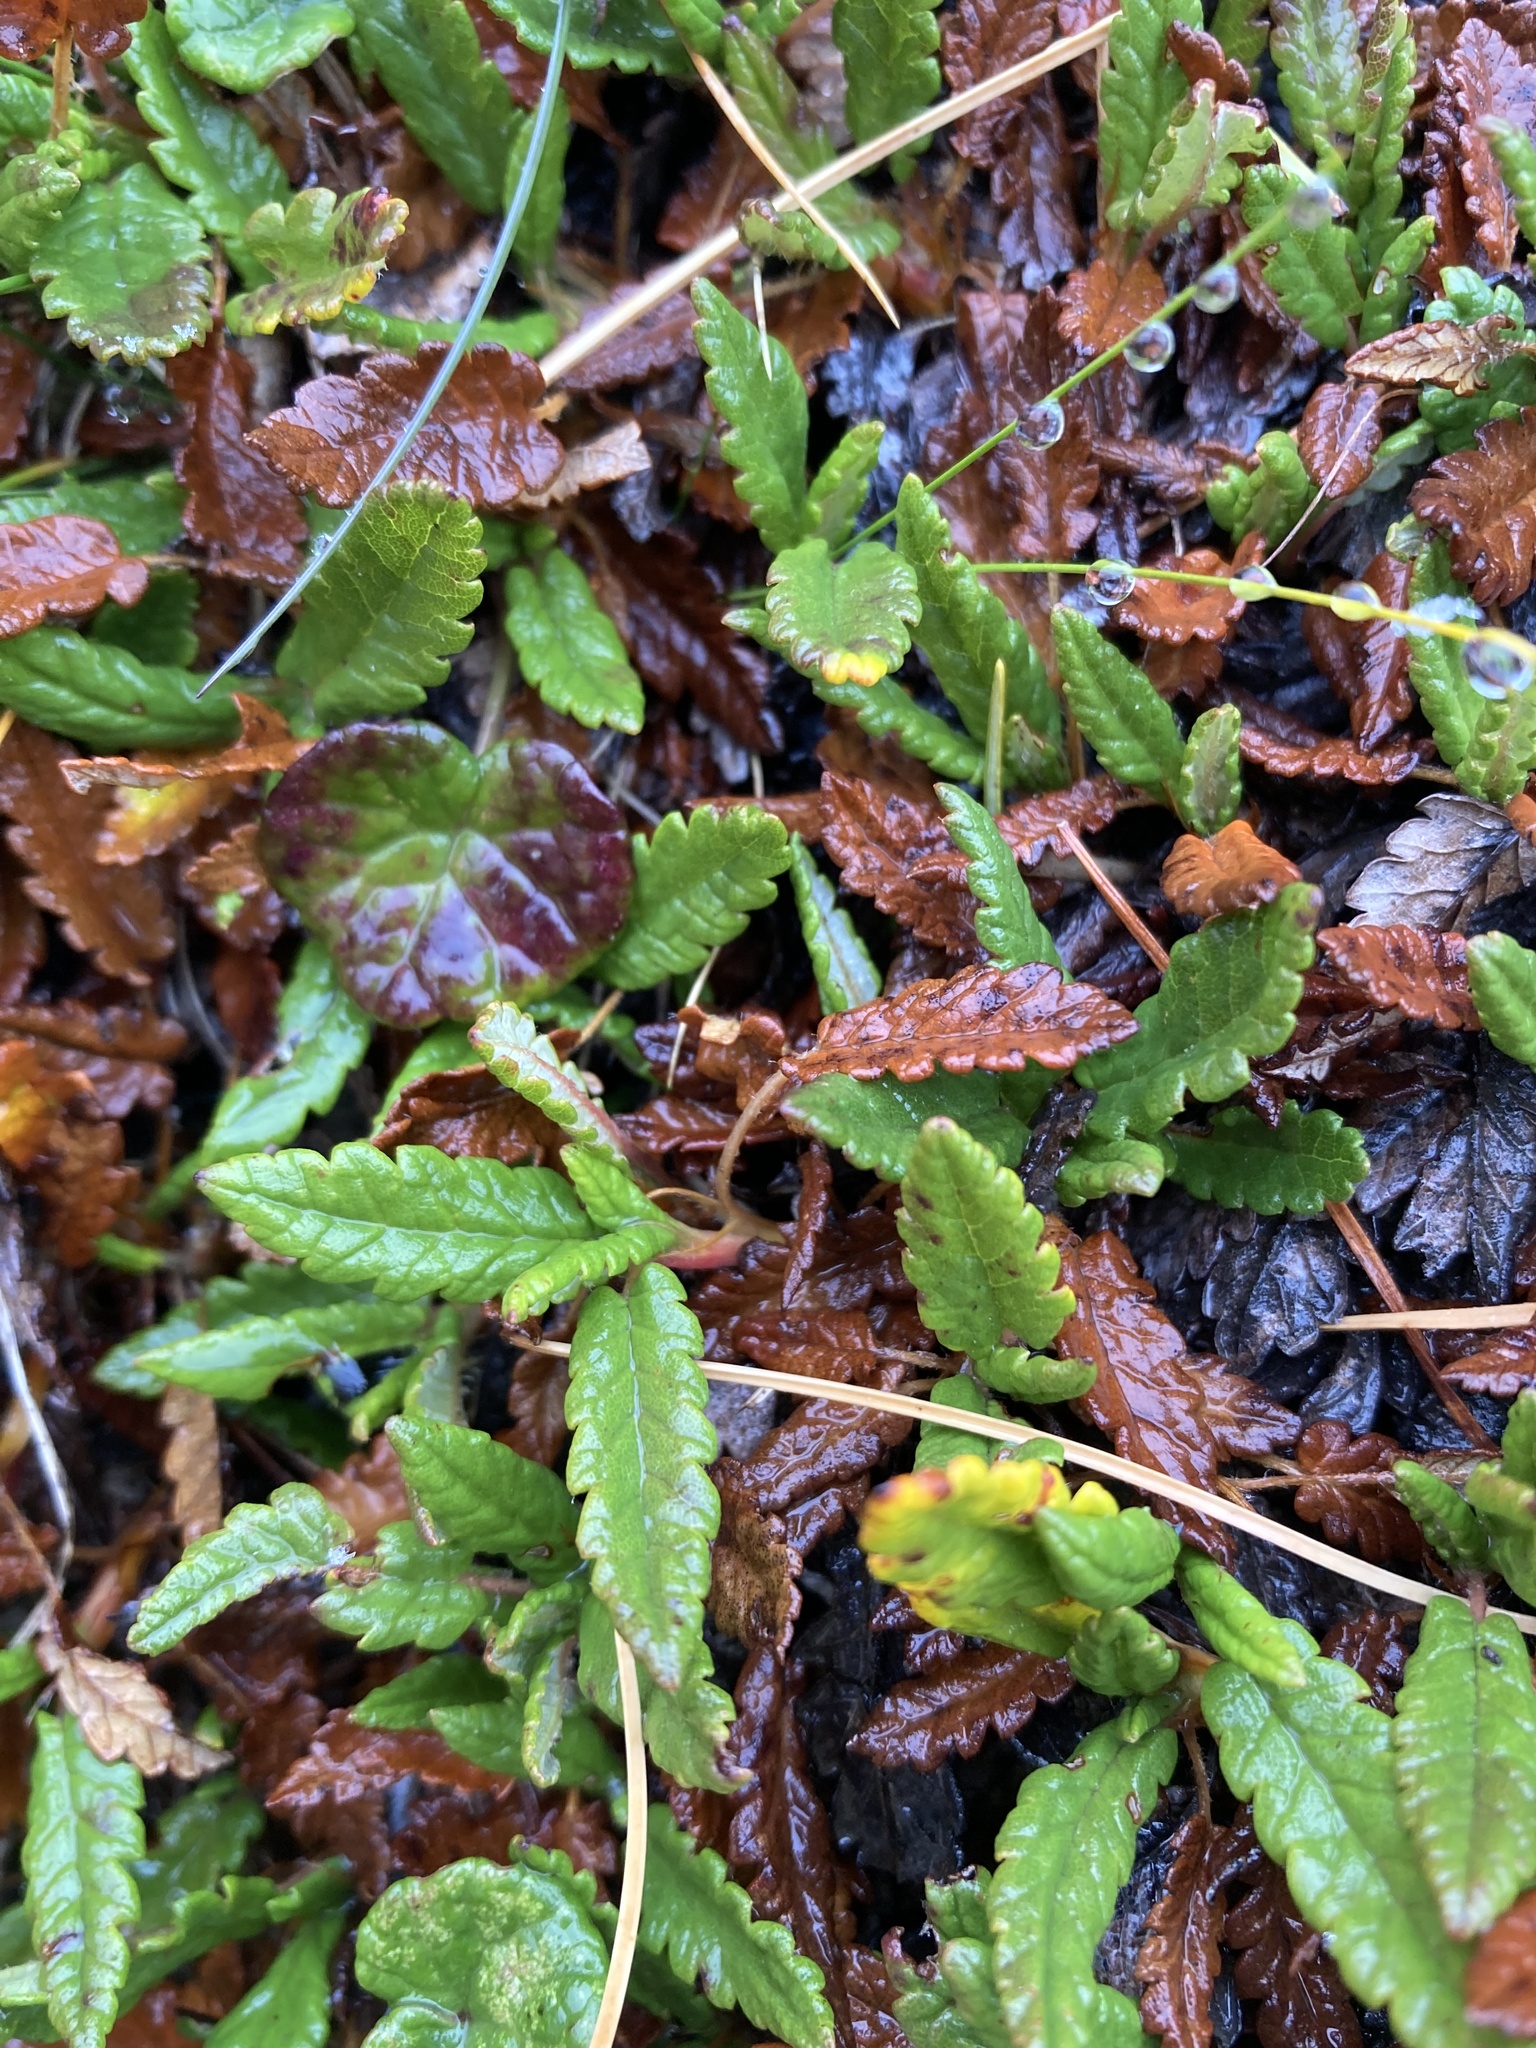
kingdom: Plantae
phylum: Tracheophyta
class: Magnoliopsida
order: Rosales
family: Rosaceae
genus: Dryas
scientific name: Dryas octopetala
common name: Eight-petal mountain-avens
